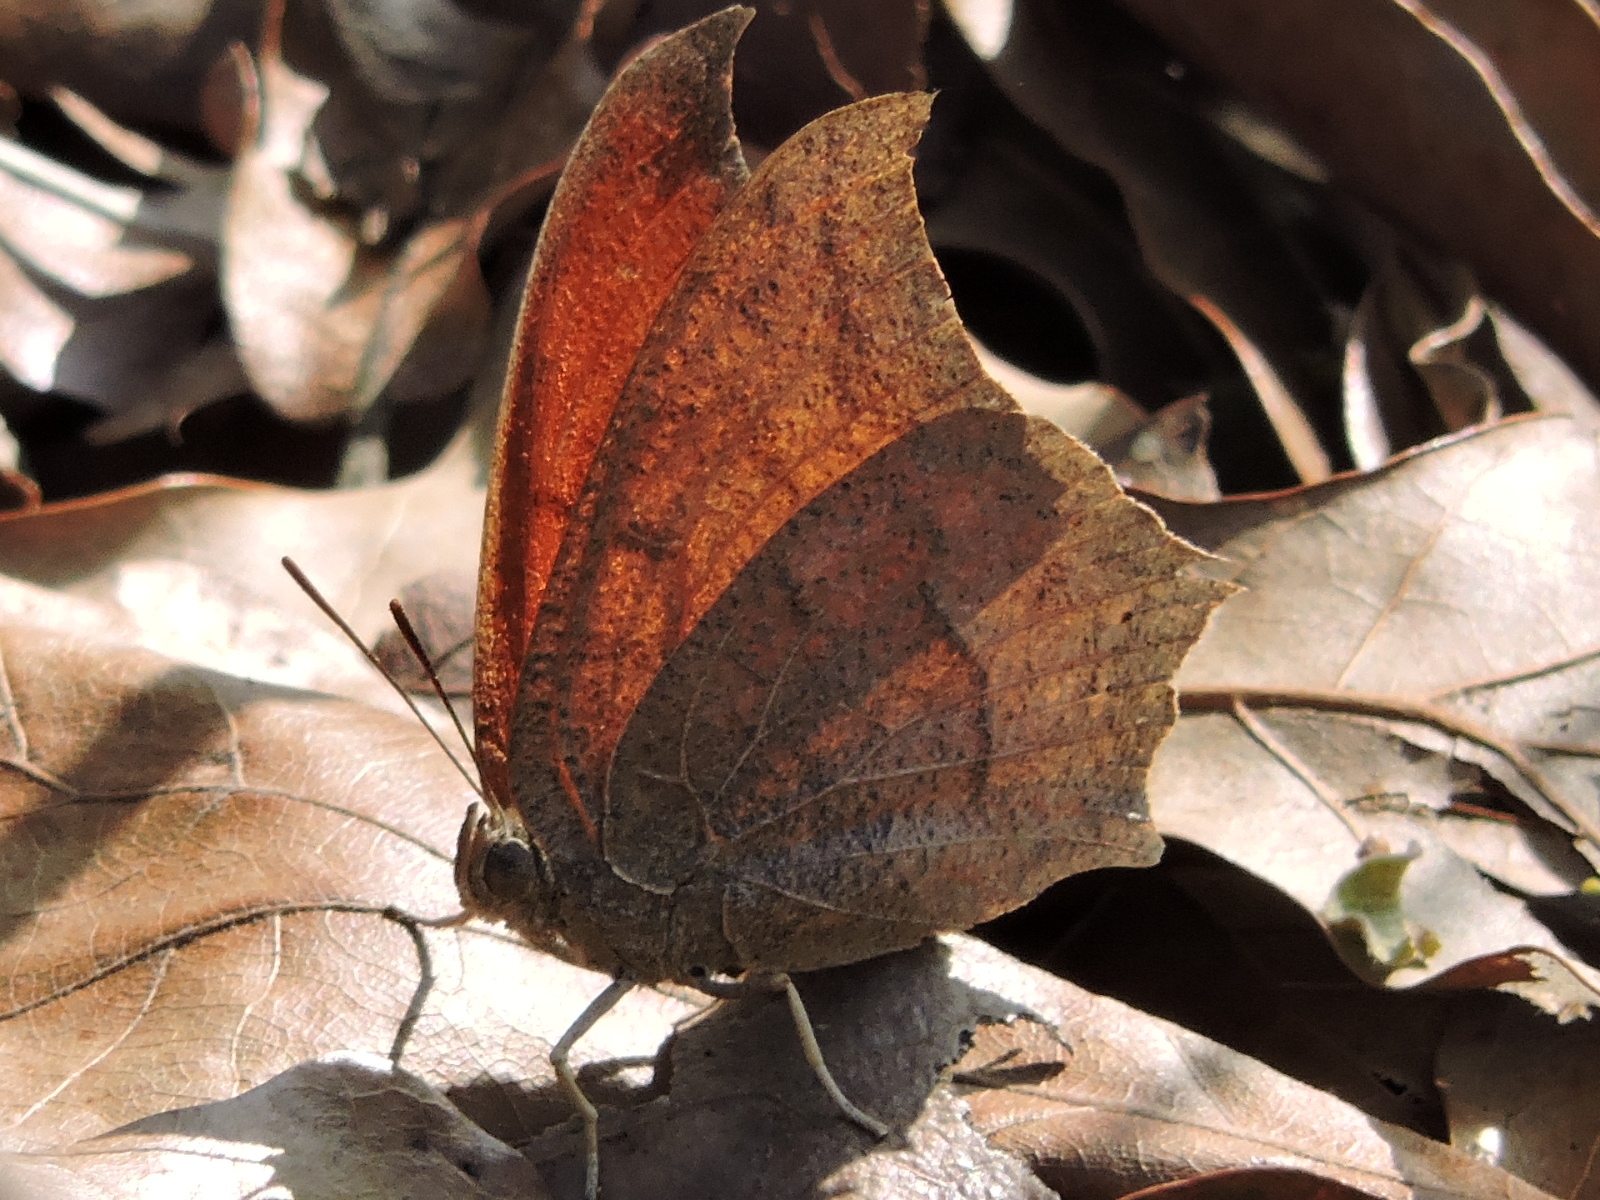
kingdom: Animalia
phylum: Arthropoda
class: Insecta
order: Lepidoptera
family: Nymphalidae
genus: Anaea
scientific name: Anaea andria
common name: Goatweed leafwing
